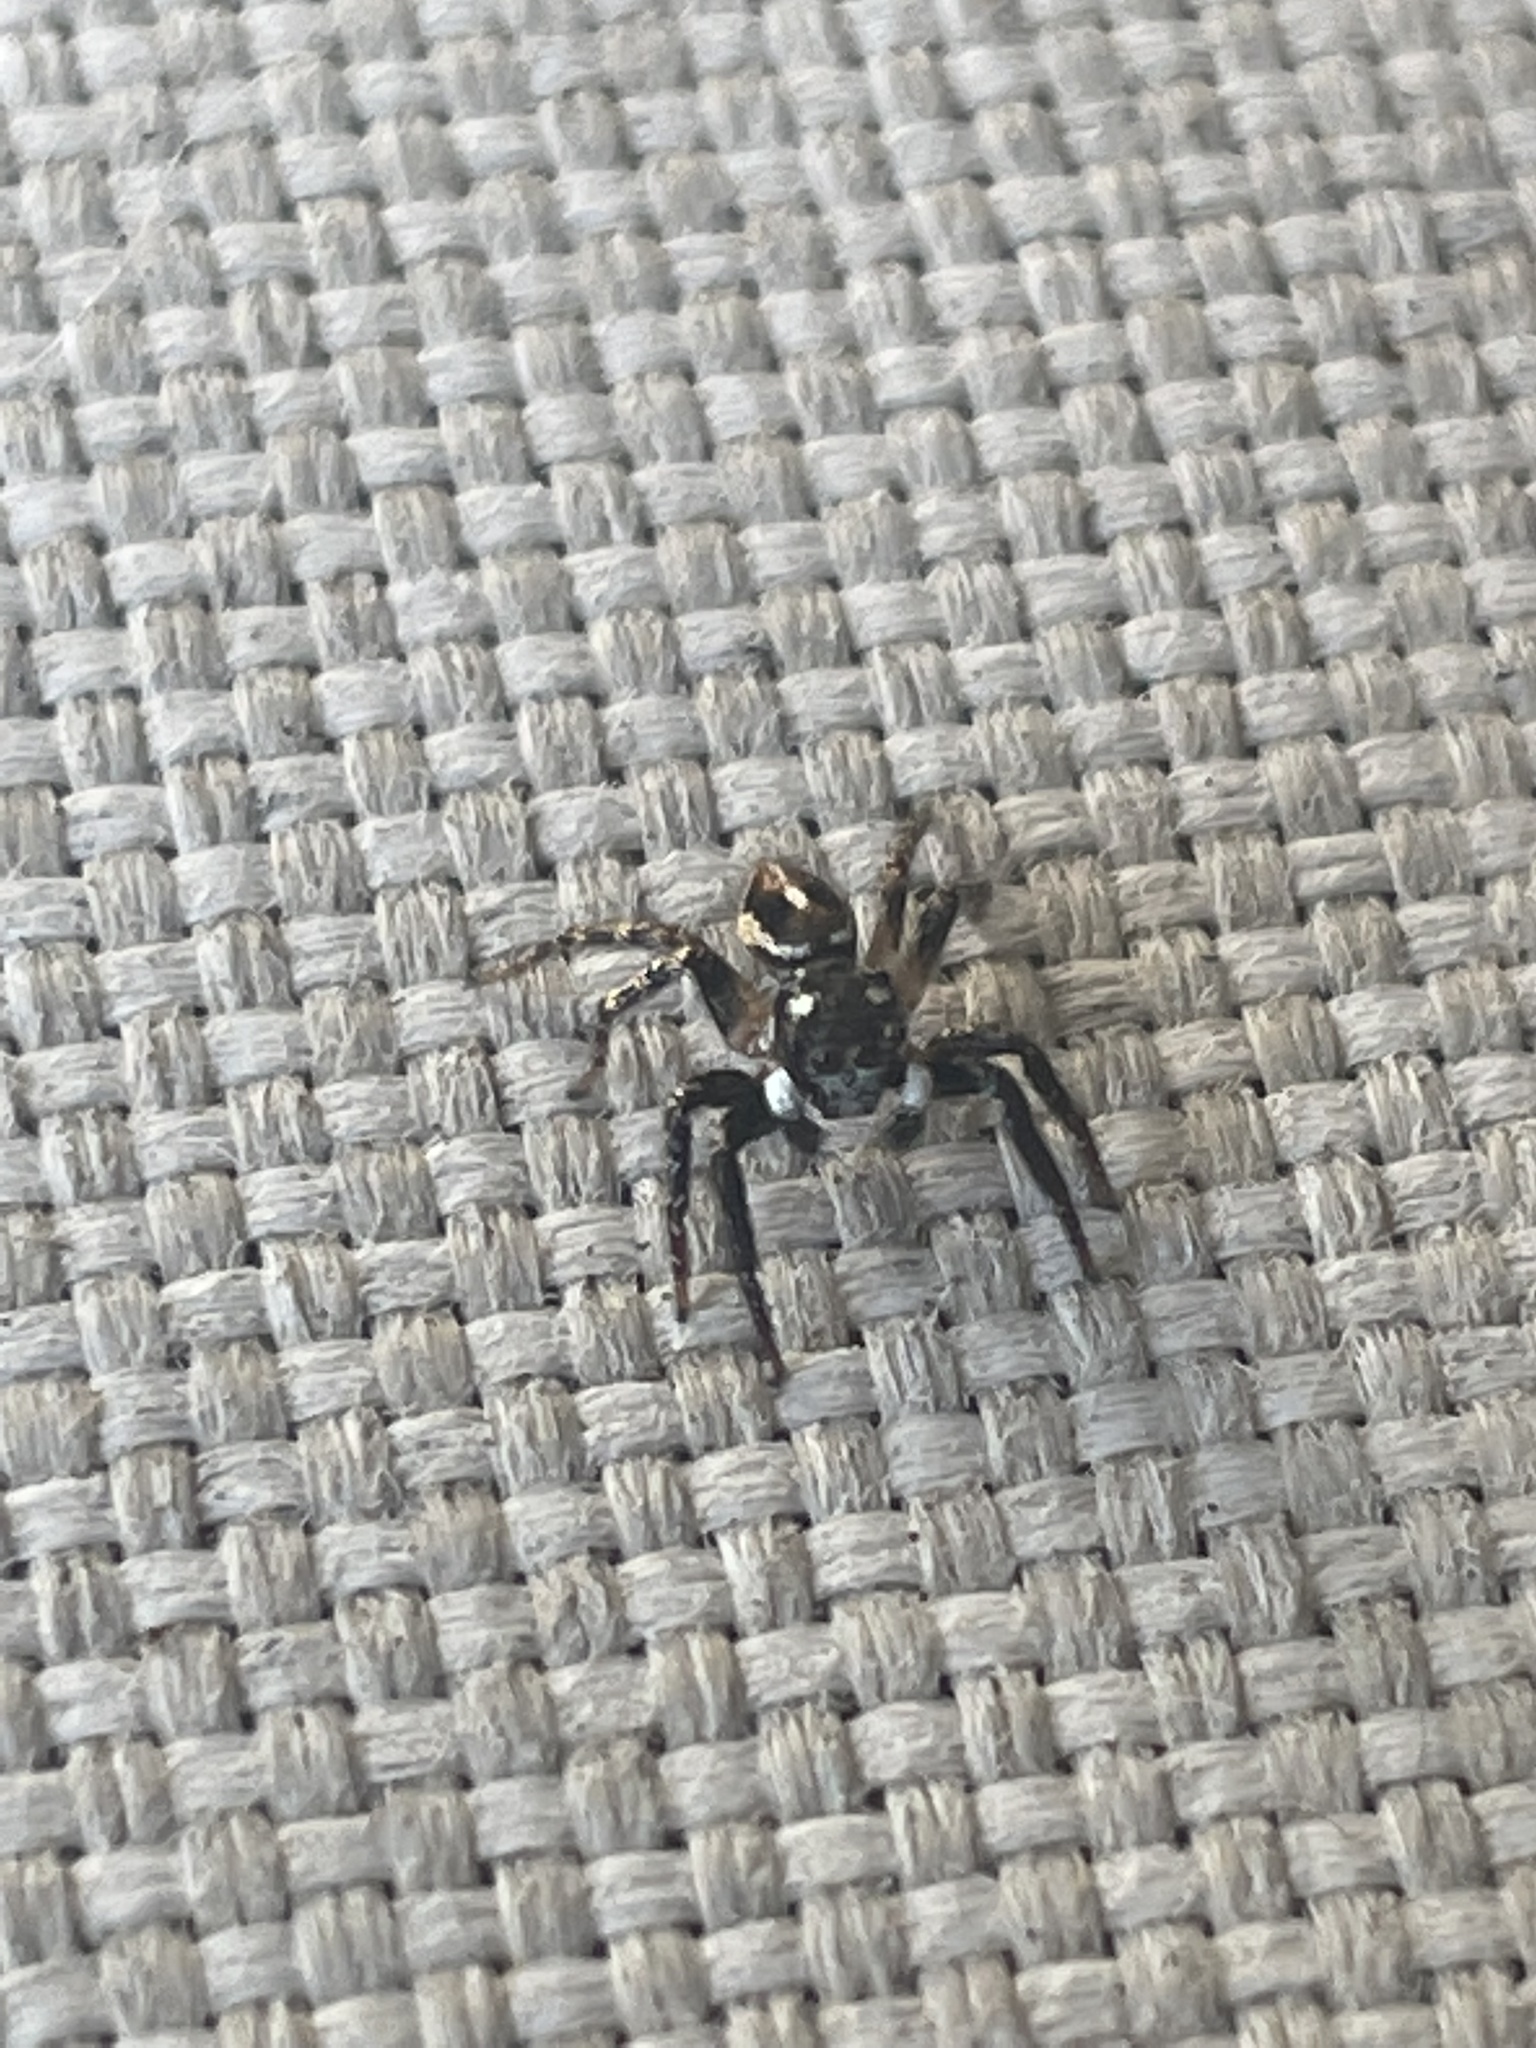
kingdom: Animalia
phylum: Arthropoda
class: Arachnida
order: Araneae
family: Salticidae
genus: Anasaitis
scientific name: Anasaitis canosa
